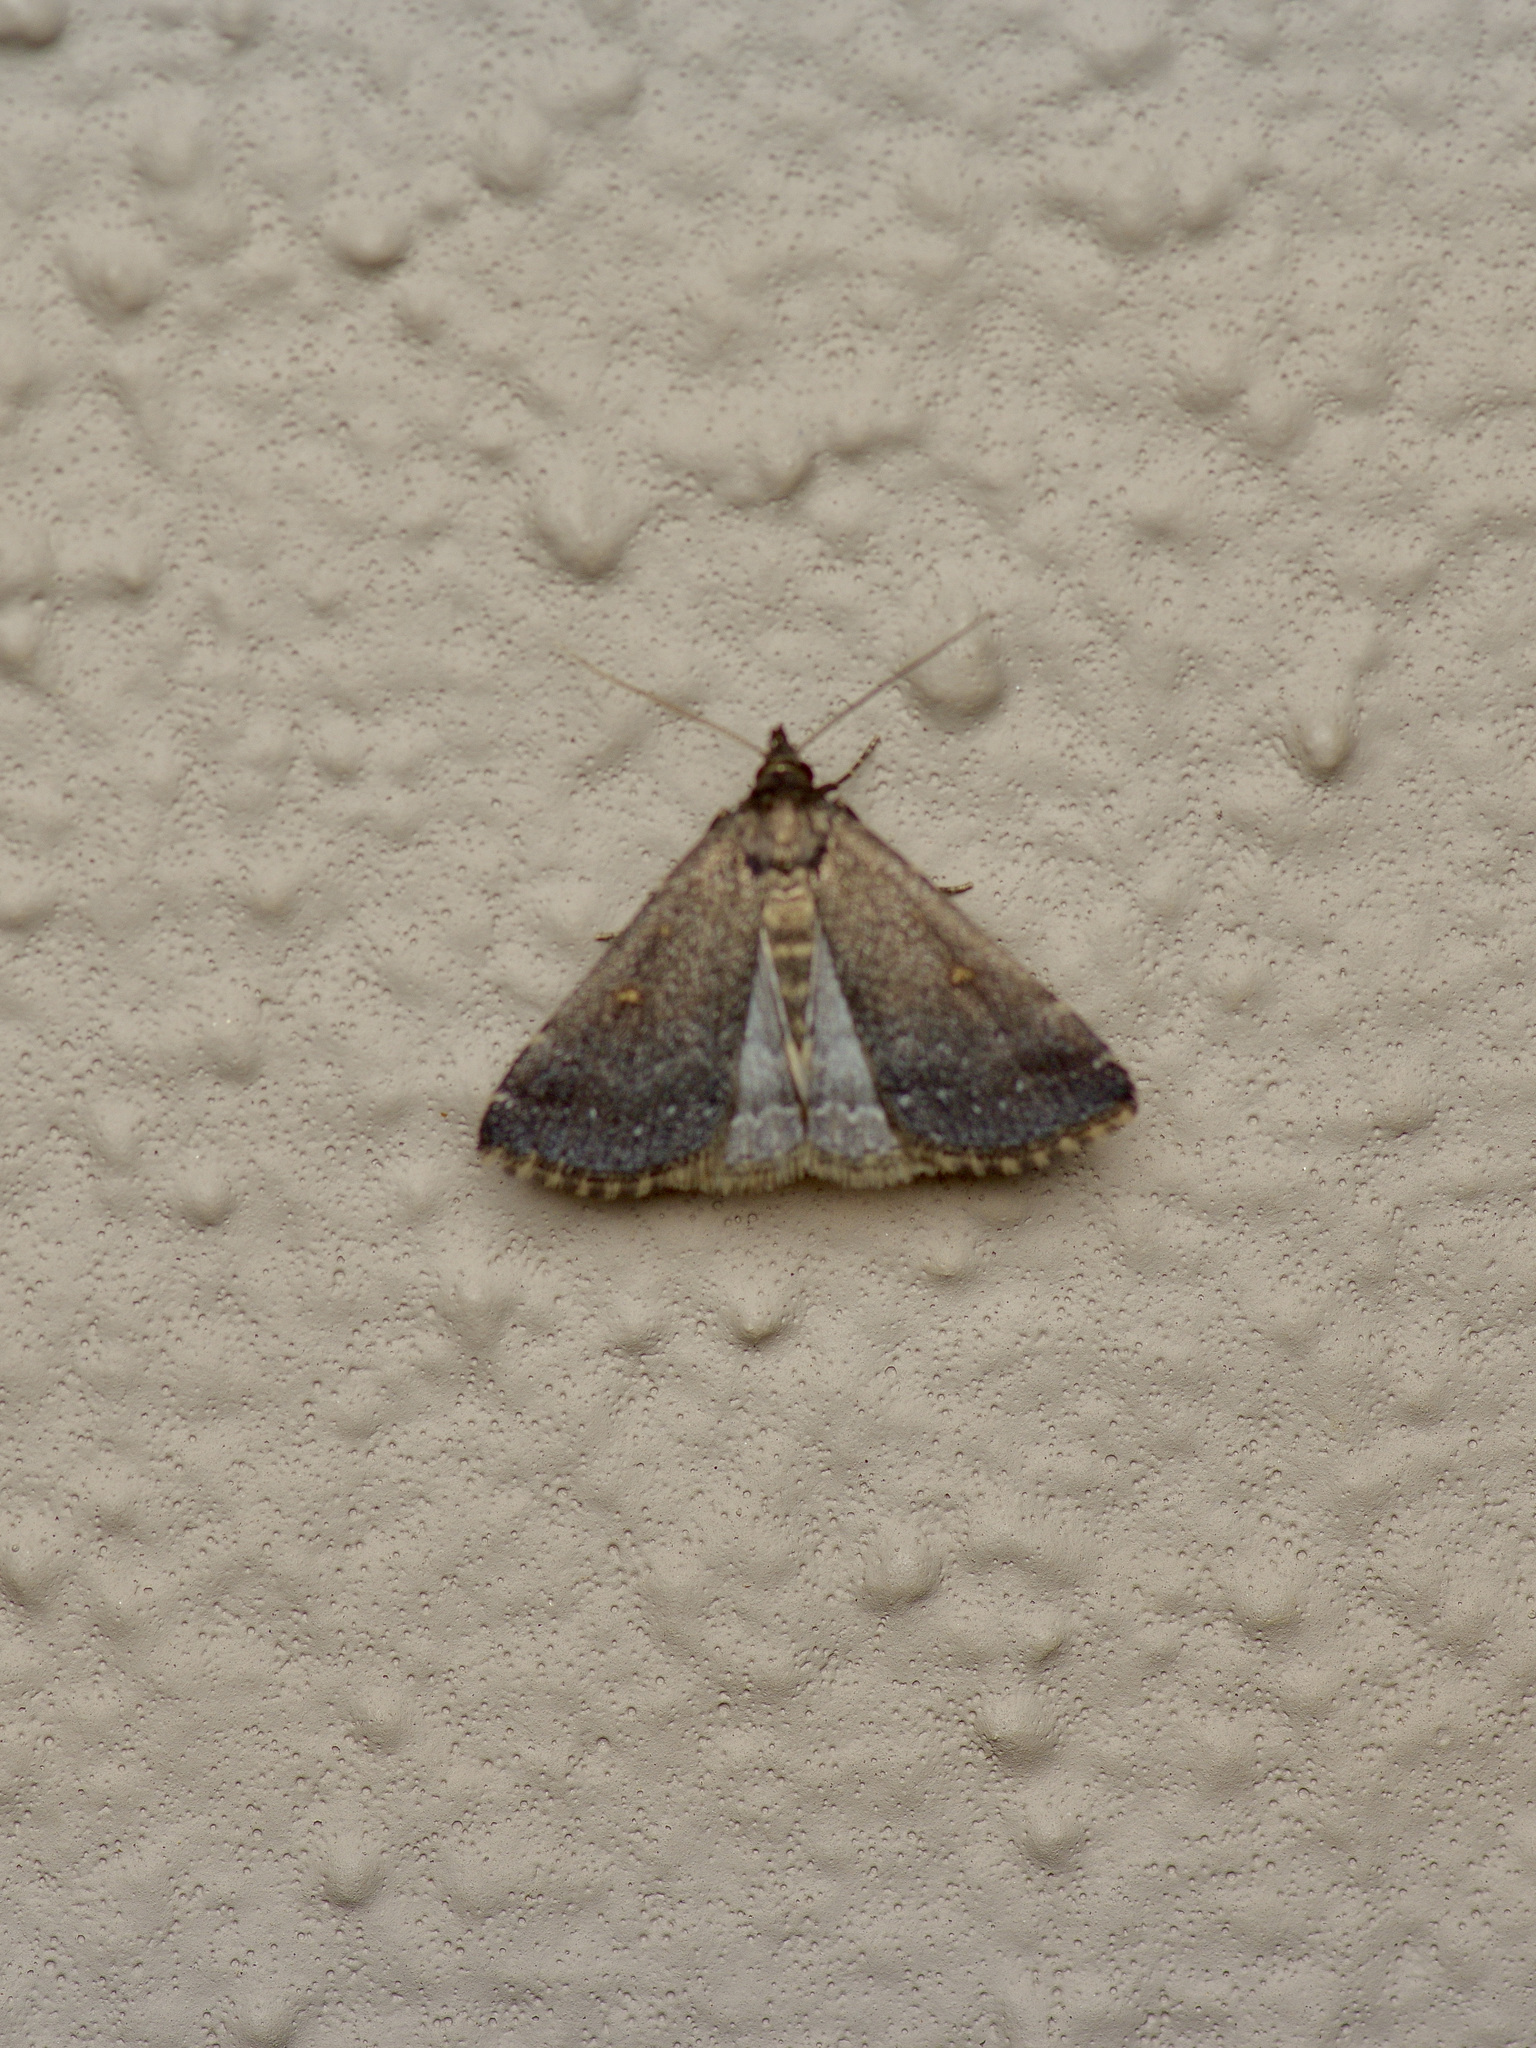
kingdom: Animalia
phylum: Arthropoda
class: Insecta
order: Lepidoptera
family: Erebidae
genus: Tetanolita
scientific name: Tetanolita mynesalis
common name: Smoky tetanolita moth
